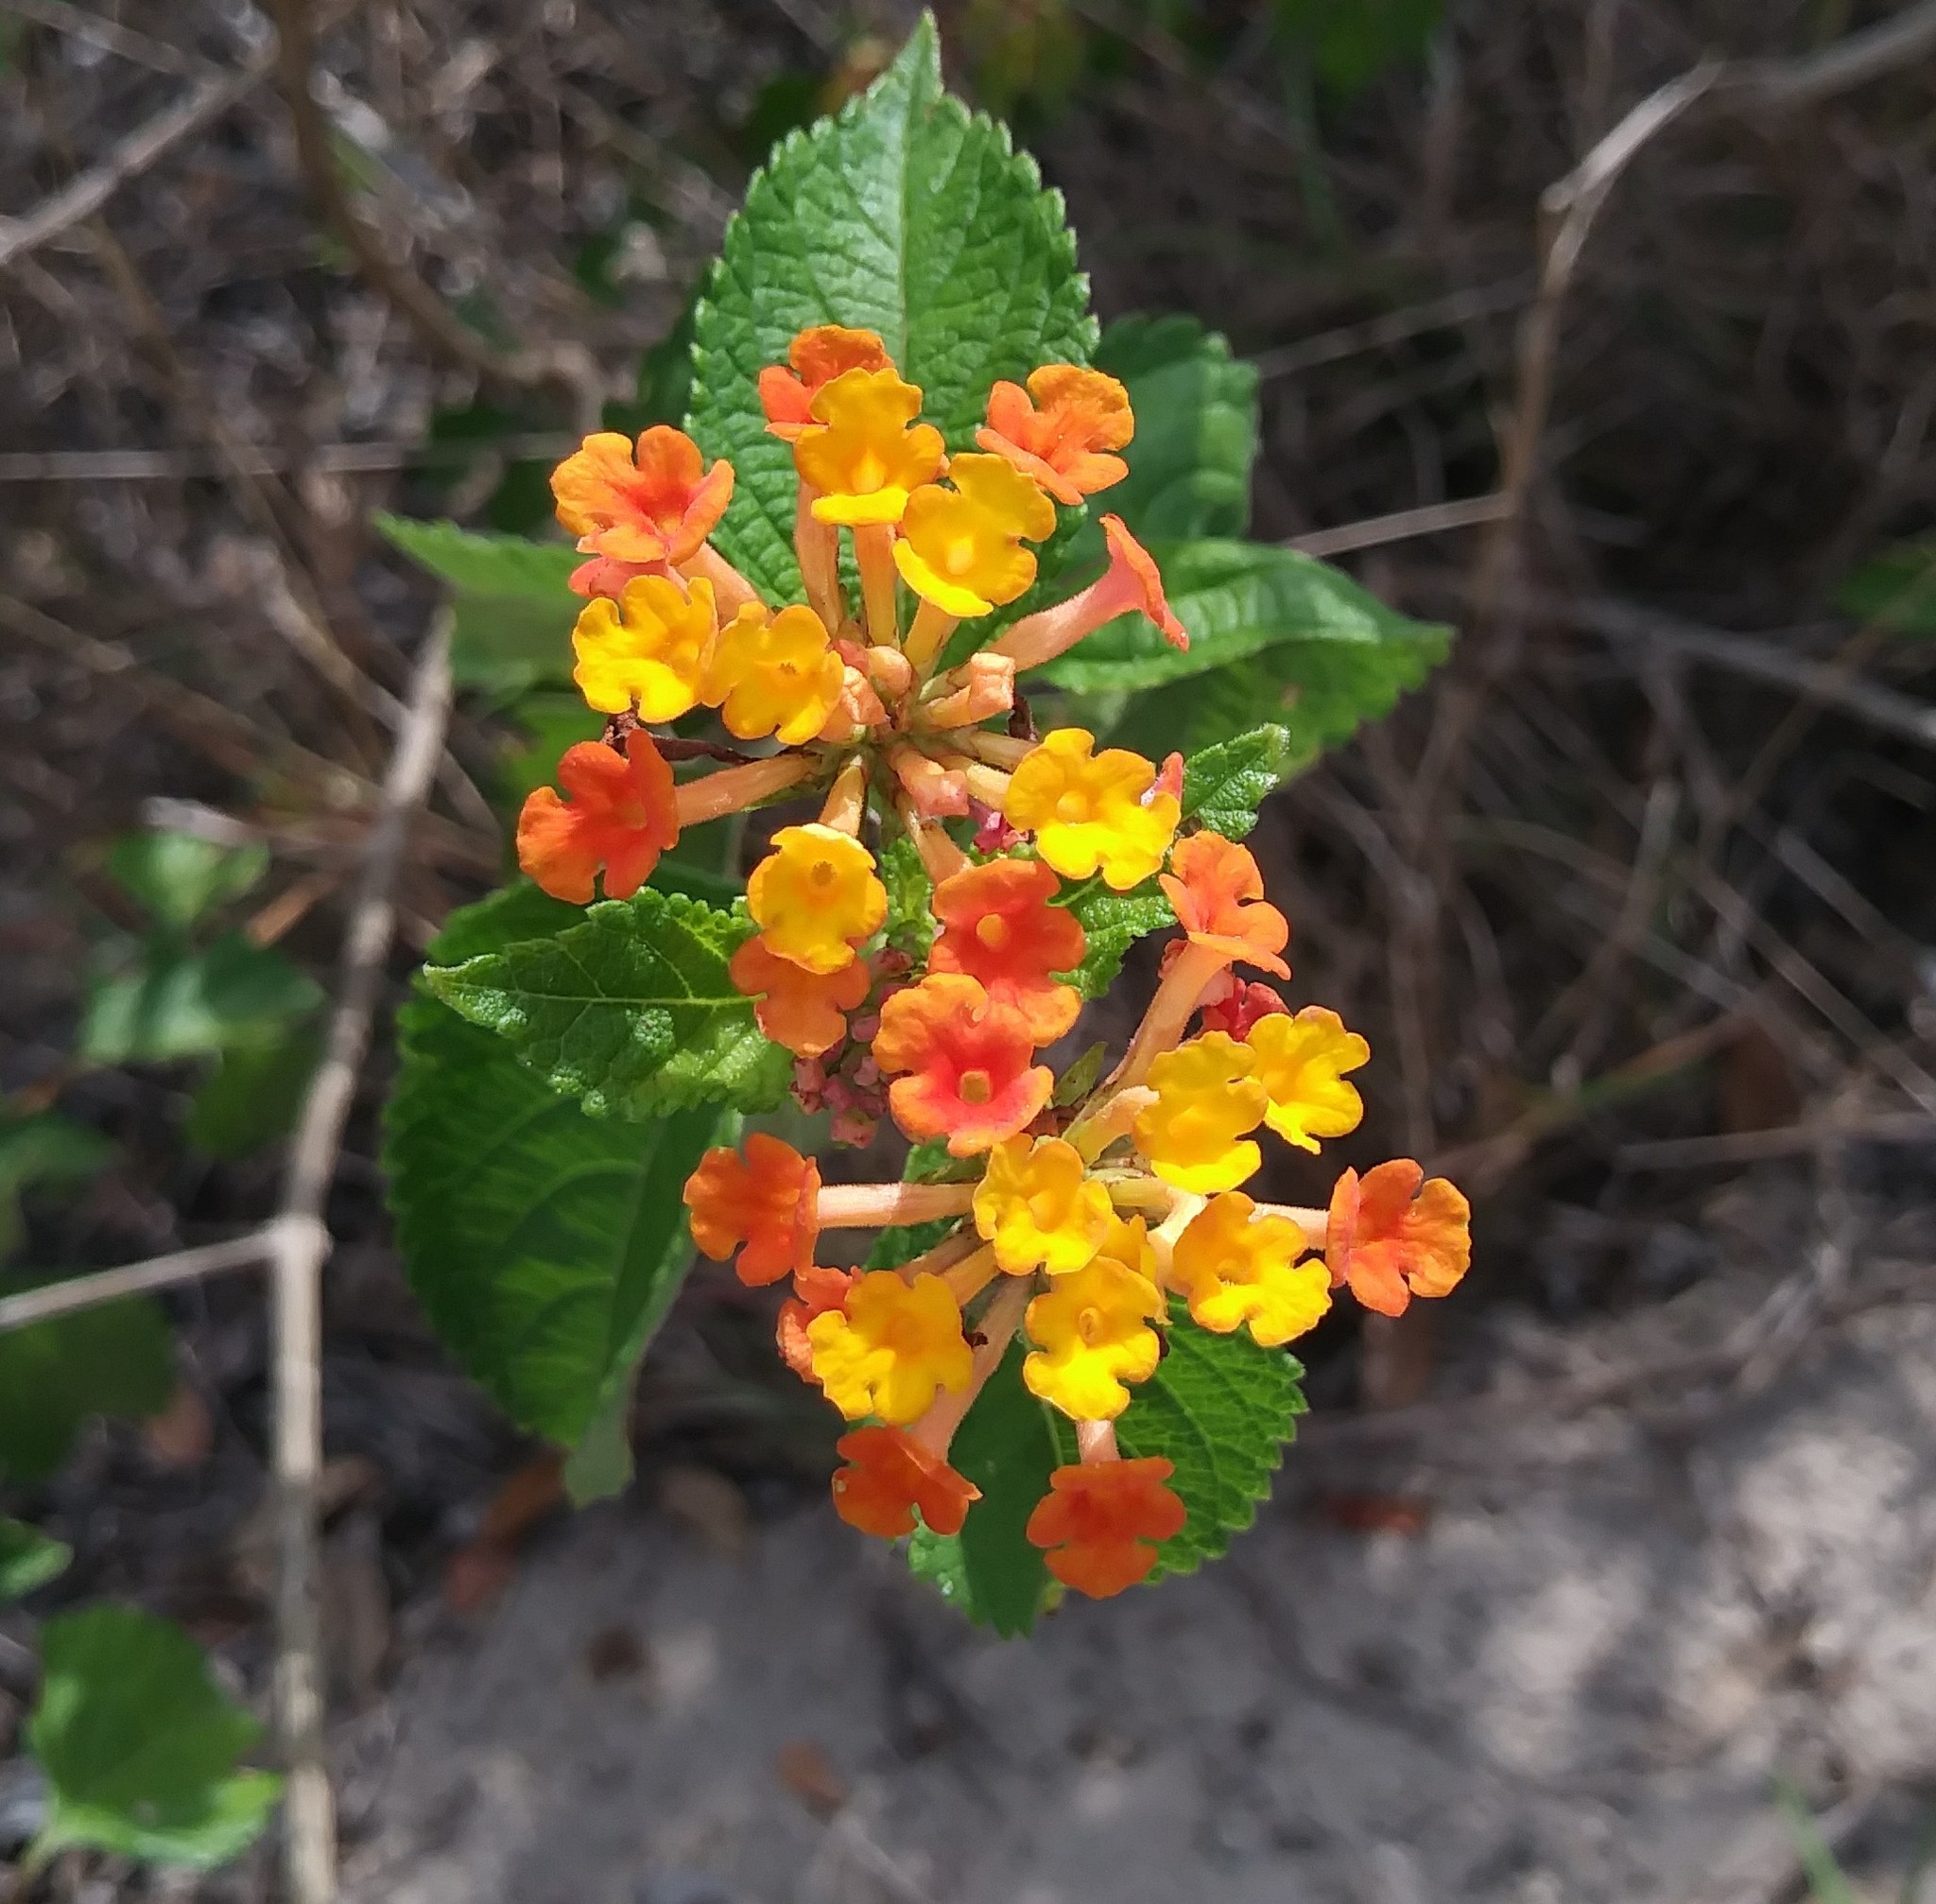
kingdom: Plantae
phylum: Tracheophyta
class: Magnoliopsida
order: Lamiales
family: Verbenaceae
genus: Lantana
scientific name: Lantana camara
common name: Lantana
